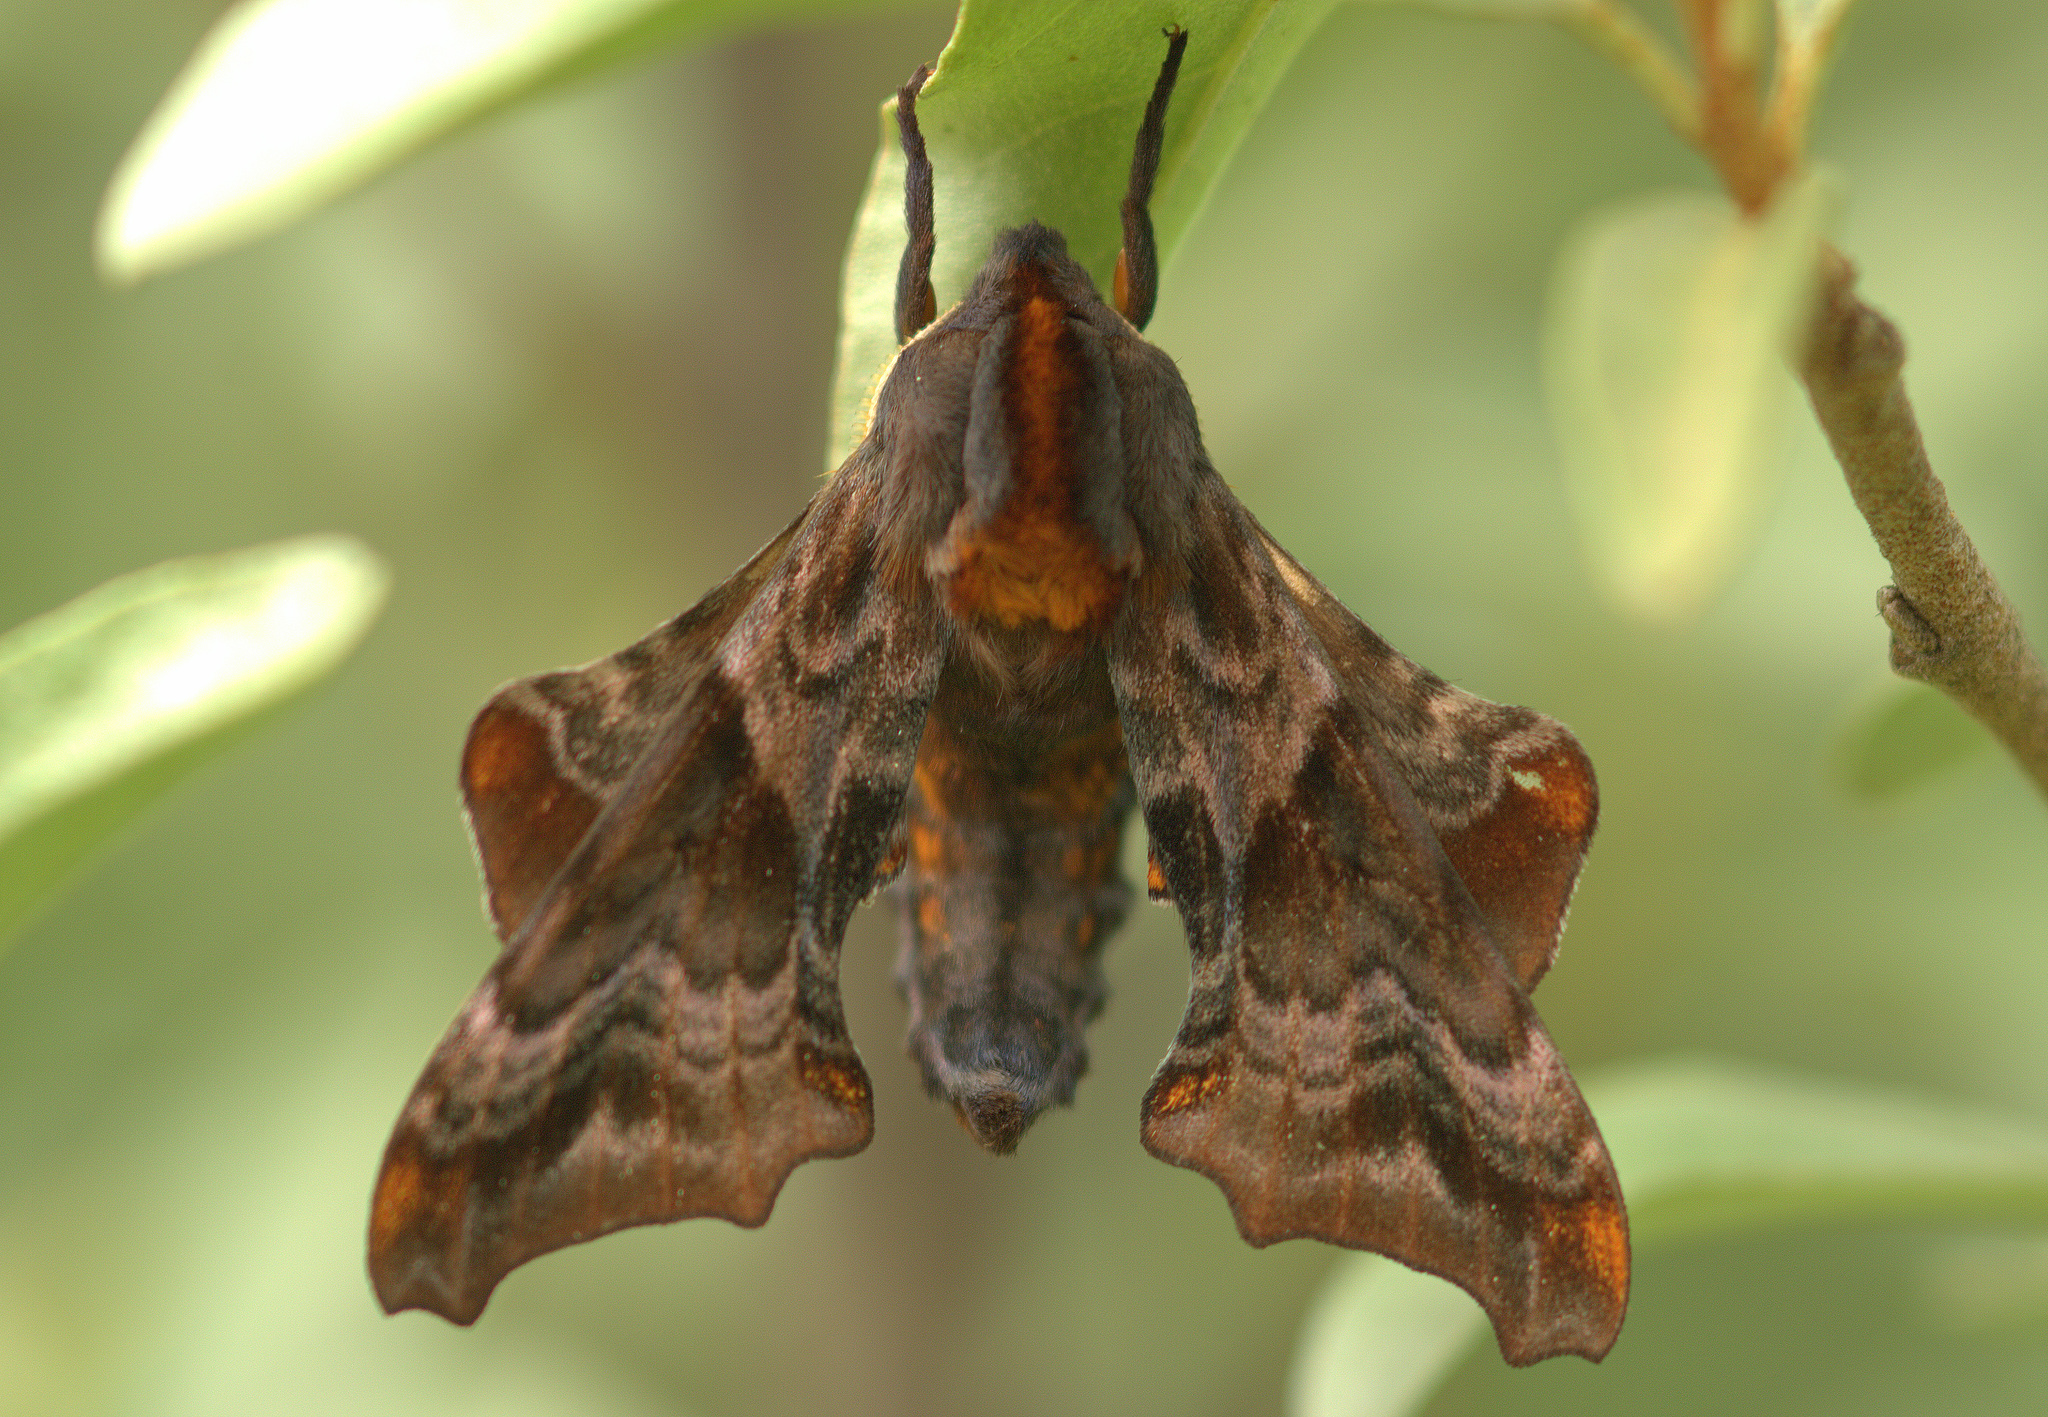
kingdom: Animalia
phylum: Arthropoda
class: Insecta
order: Lepidoptera
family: Sphingidae
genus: Paonias
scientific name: Paonias myops
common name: Small-eyed sphinx
